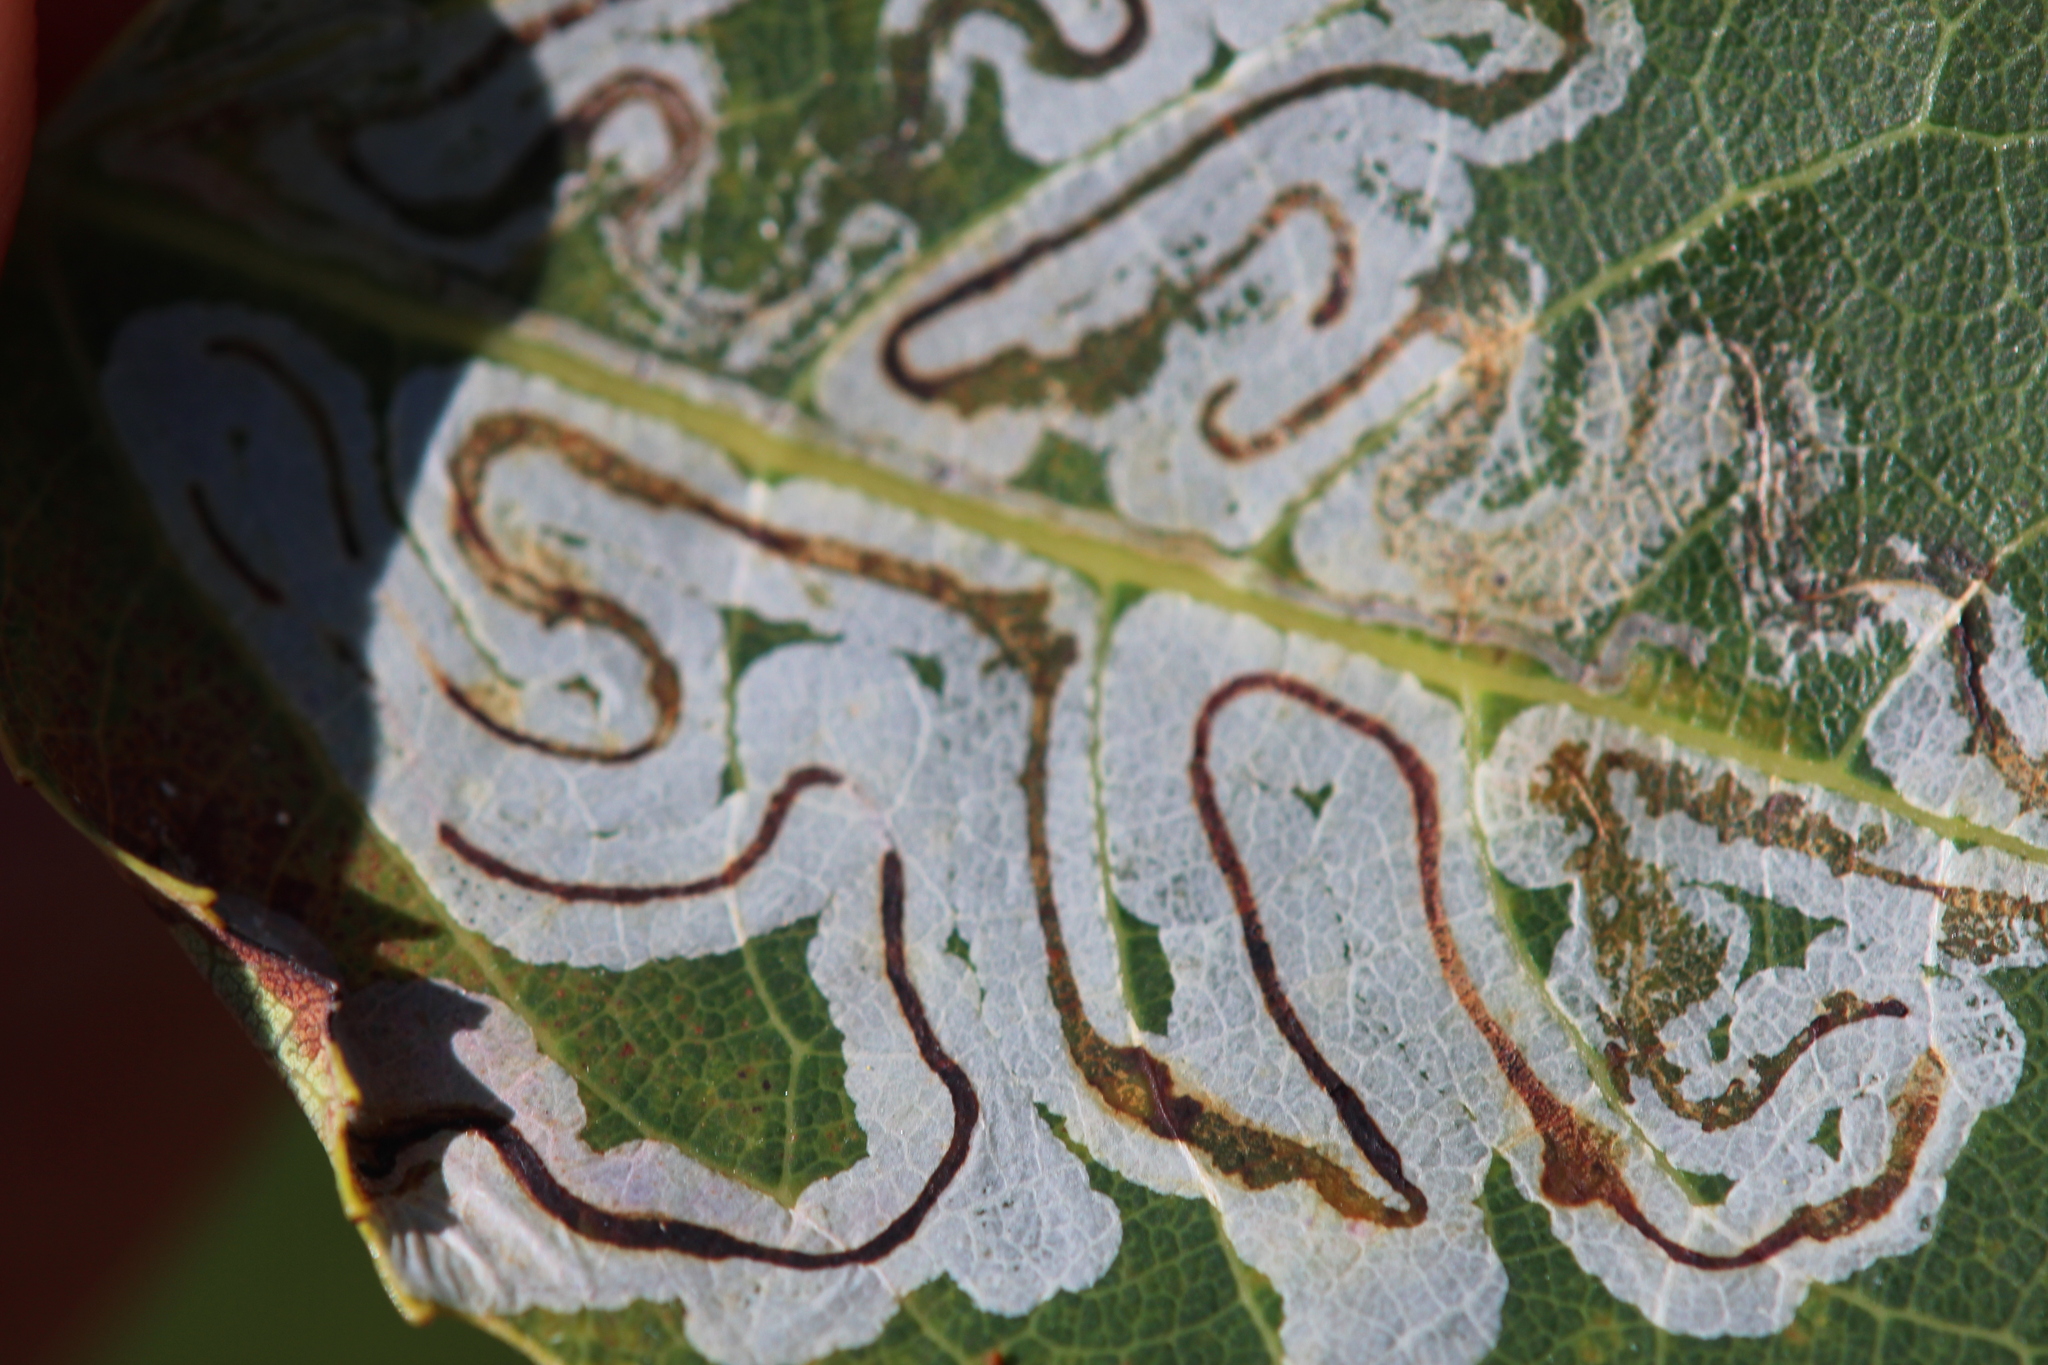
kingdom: Animalia
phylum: Arthropoda
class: Insecta
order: Lepidoptera
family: Gracillariidae
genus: Phyllocnistis
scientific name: Phyllocnistis populiella
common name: Aspen serpentine leafminer moth
